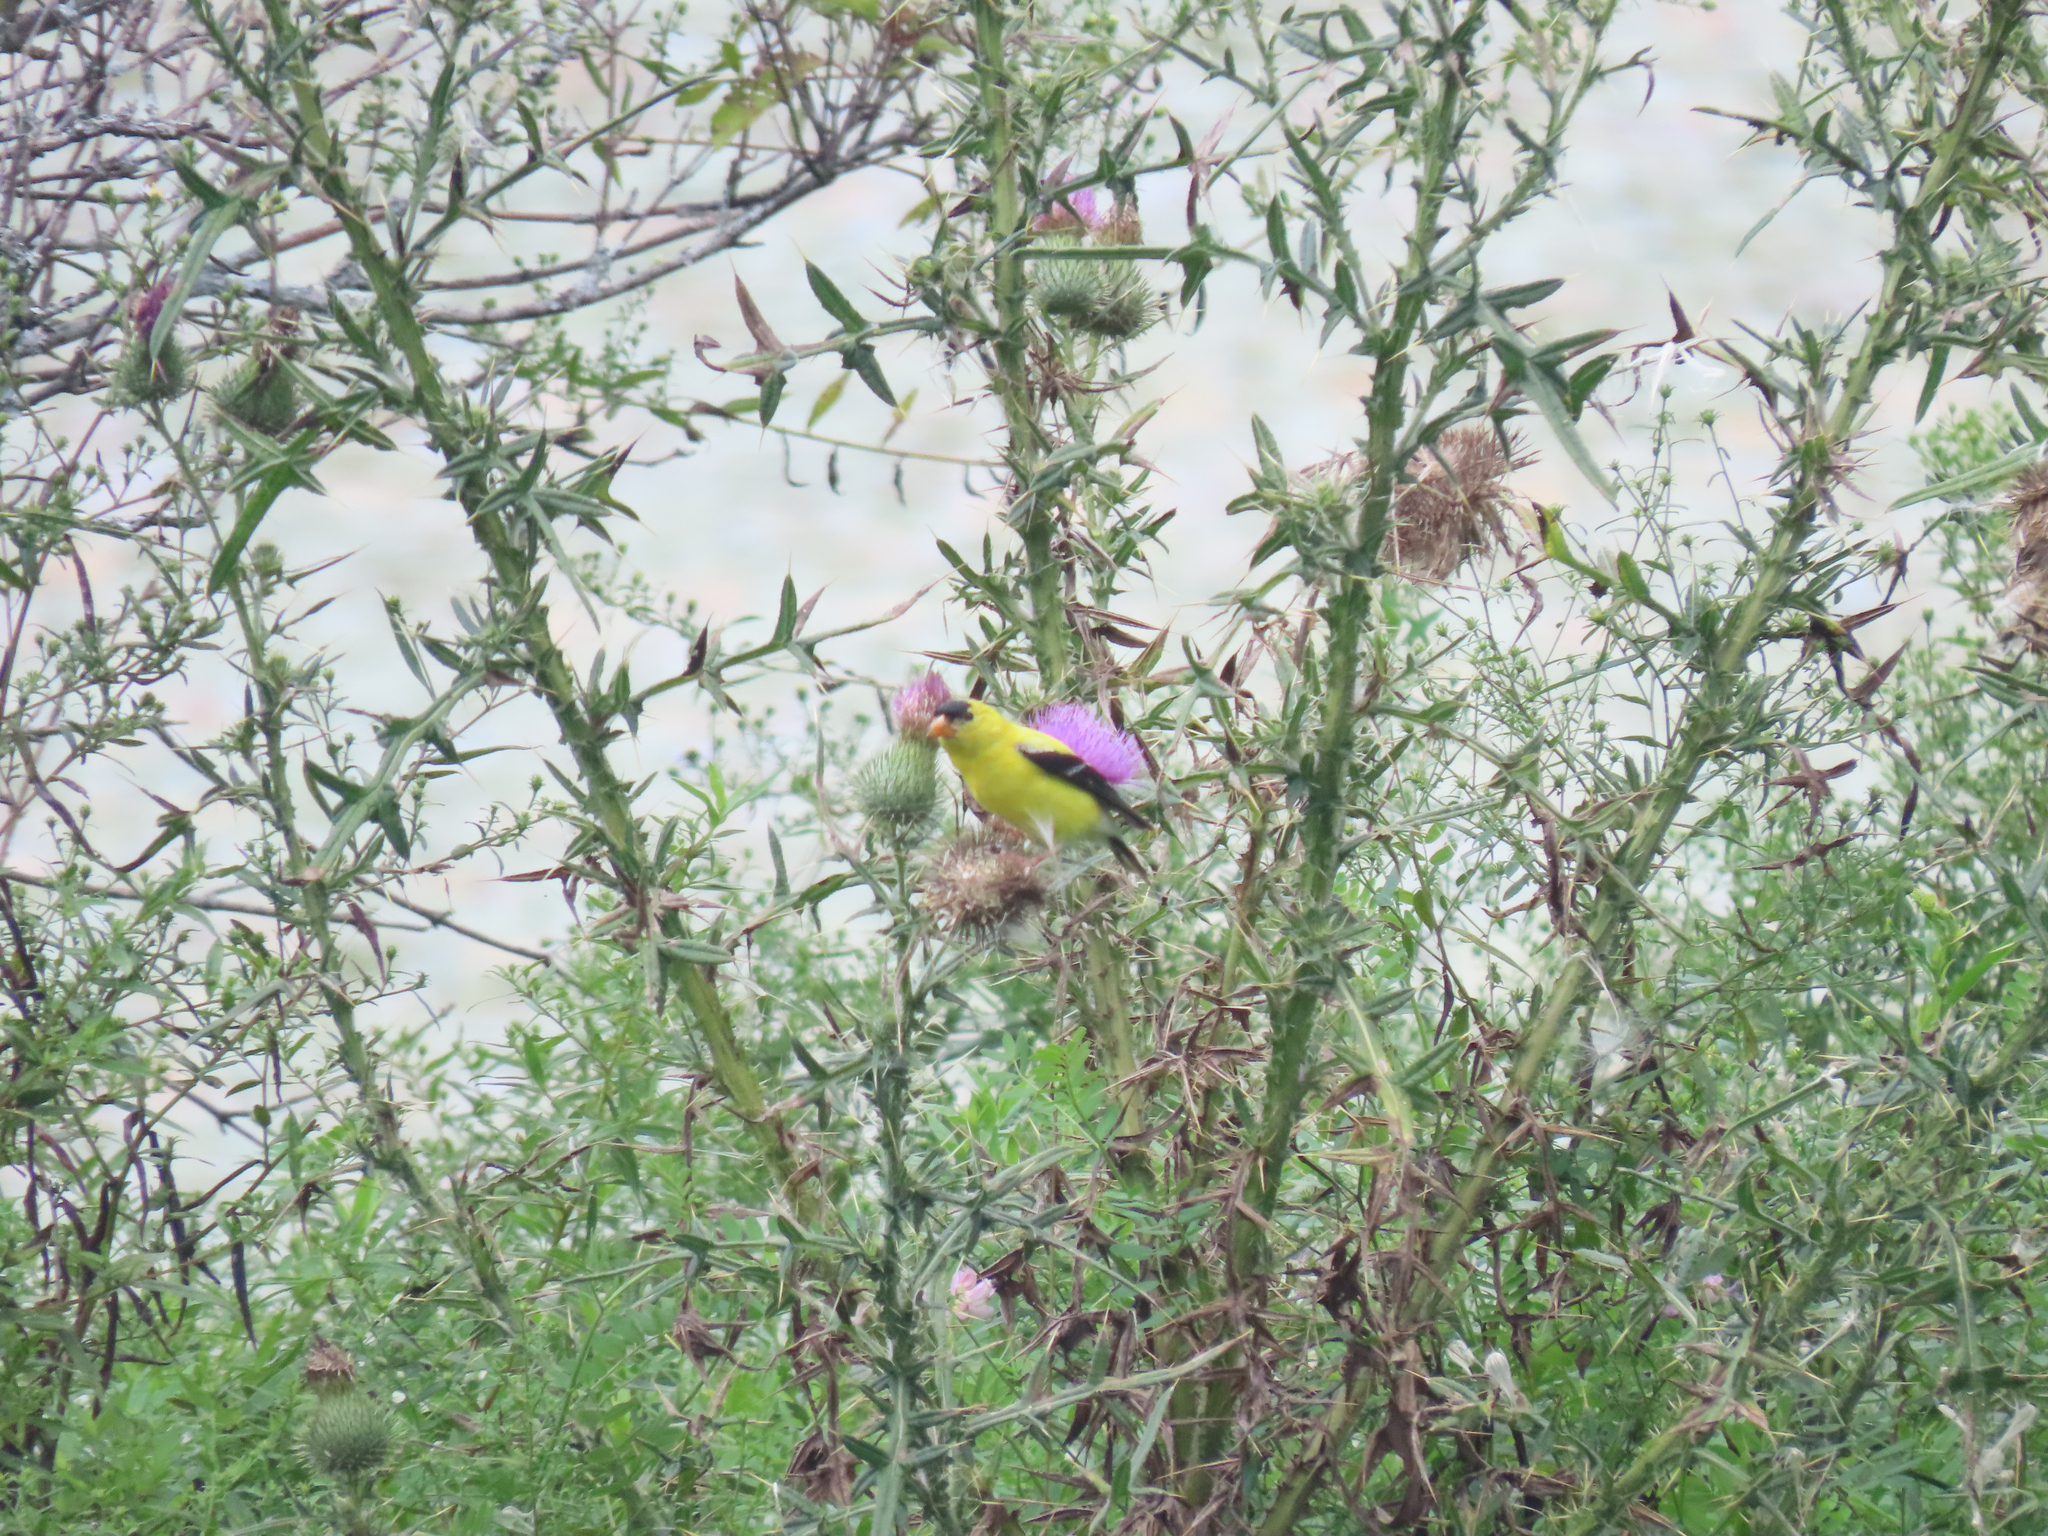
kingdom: Animalia
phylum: Chordata
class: Aves
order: Passeriformes
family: Fringillidae
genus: Spinus
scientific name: Spinus tristis
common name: American goldfinch
